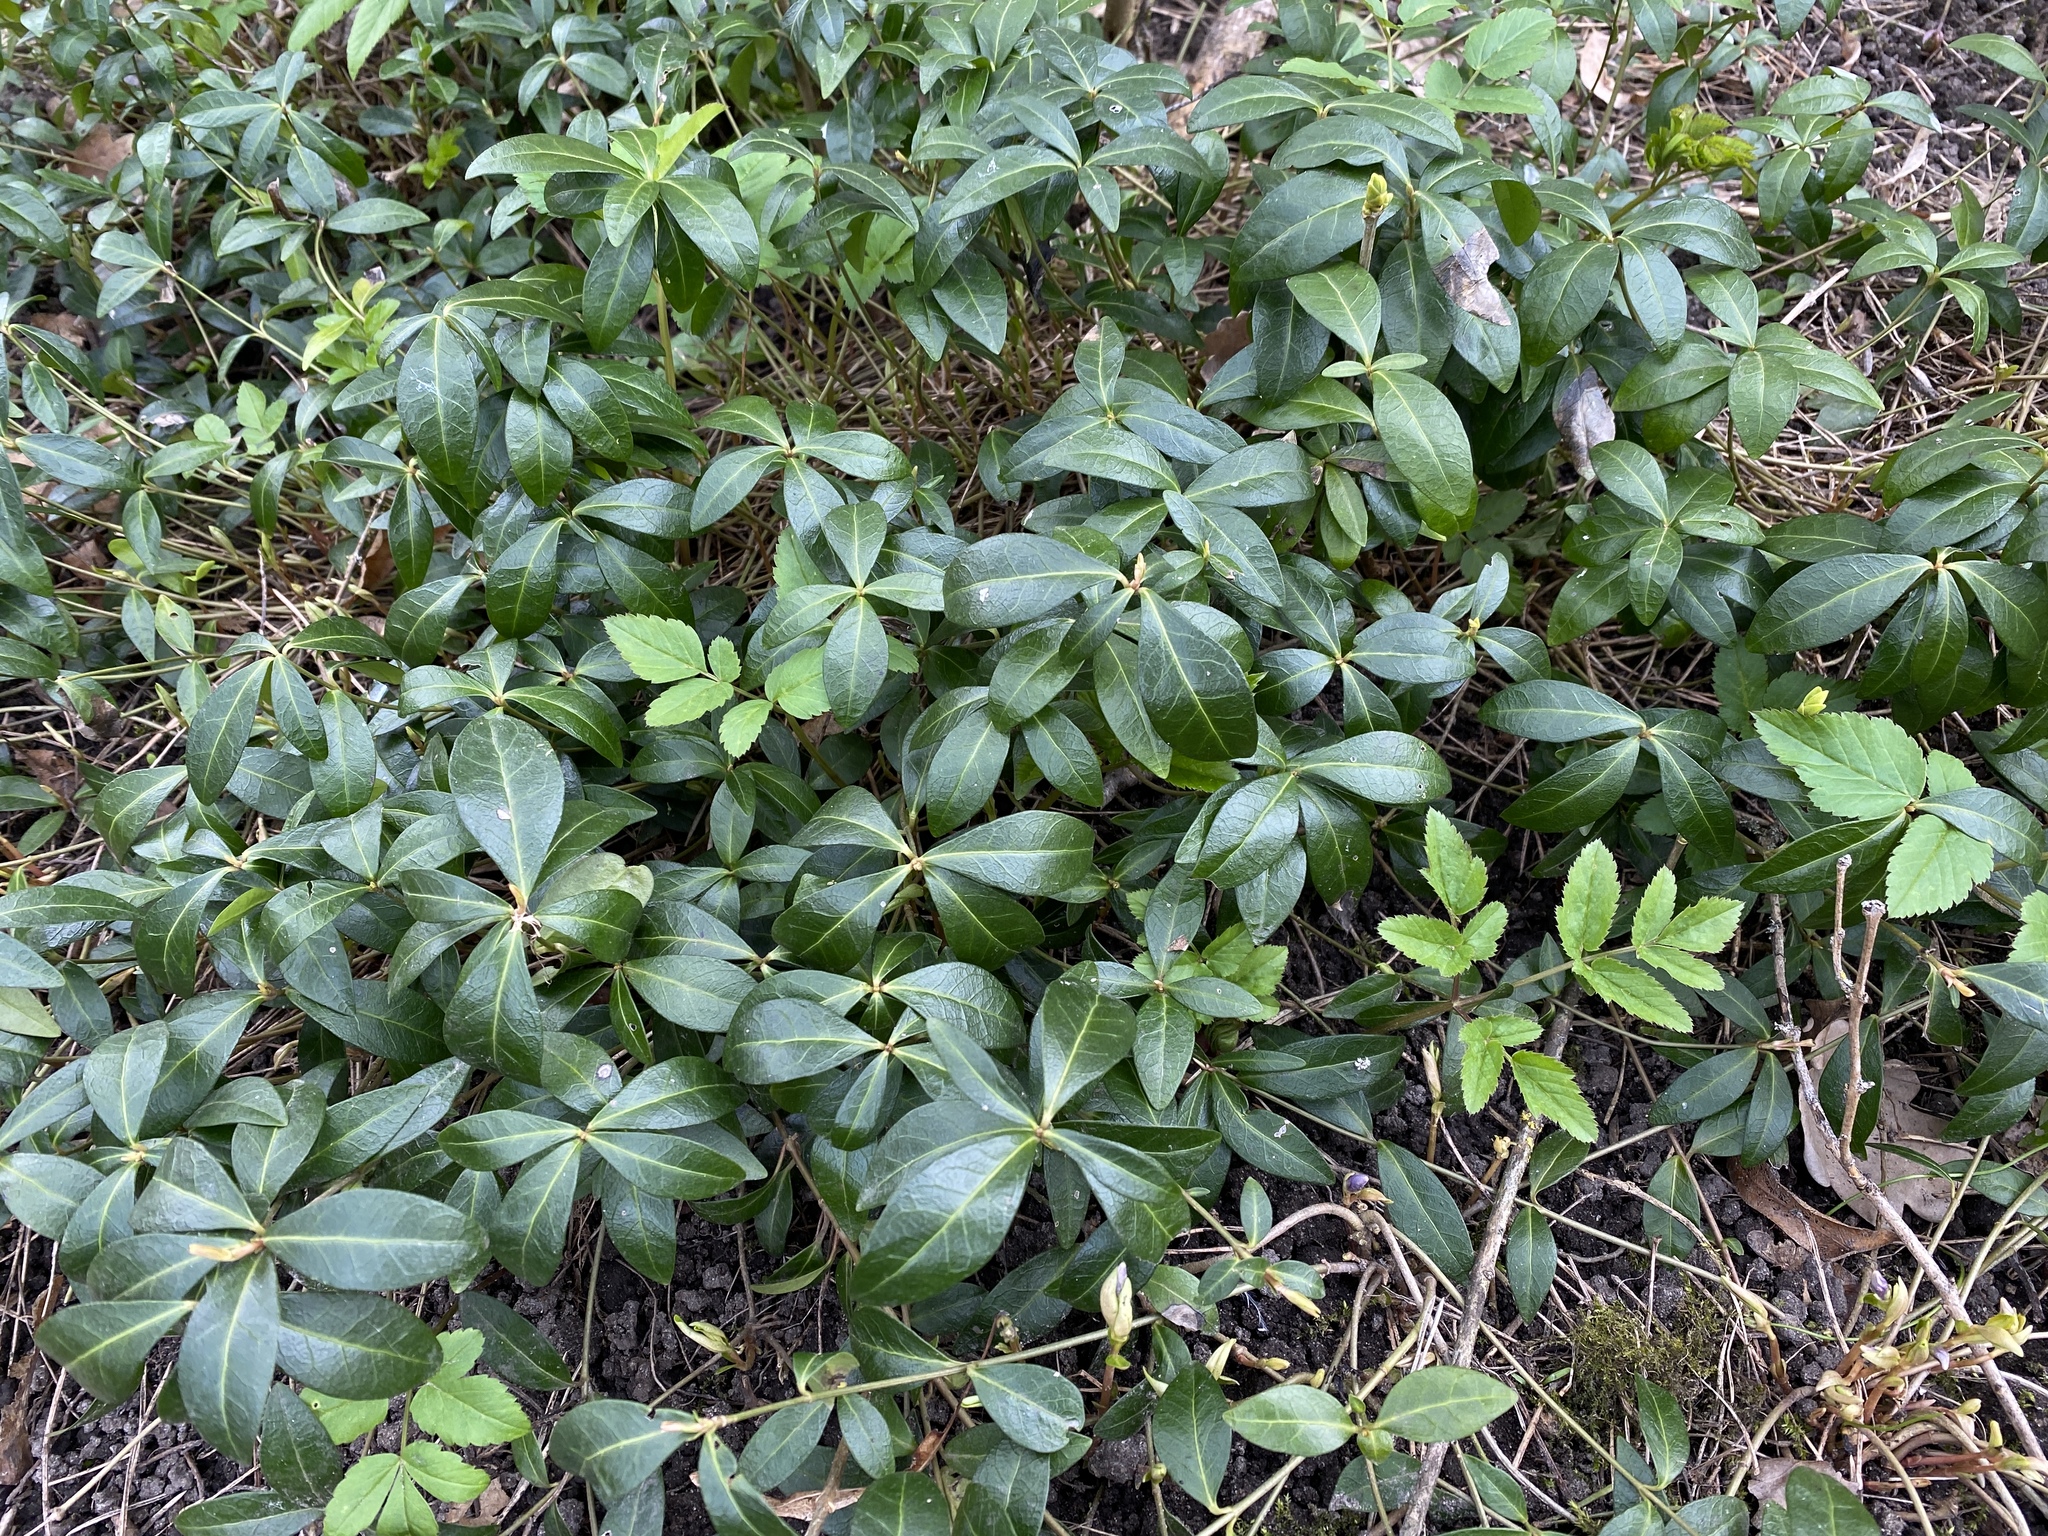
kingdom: Plantae
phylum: Tracheophyta
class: Magnoliopsida
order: Gentianales
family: Apocynaceae
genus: Vinca
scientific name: Vinca minor
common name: Lesser periwinkle
